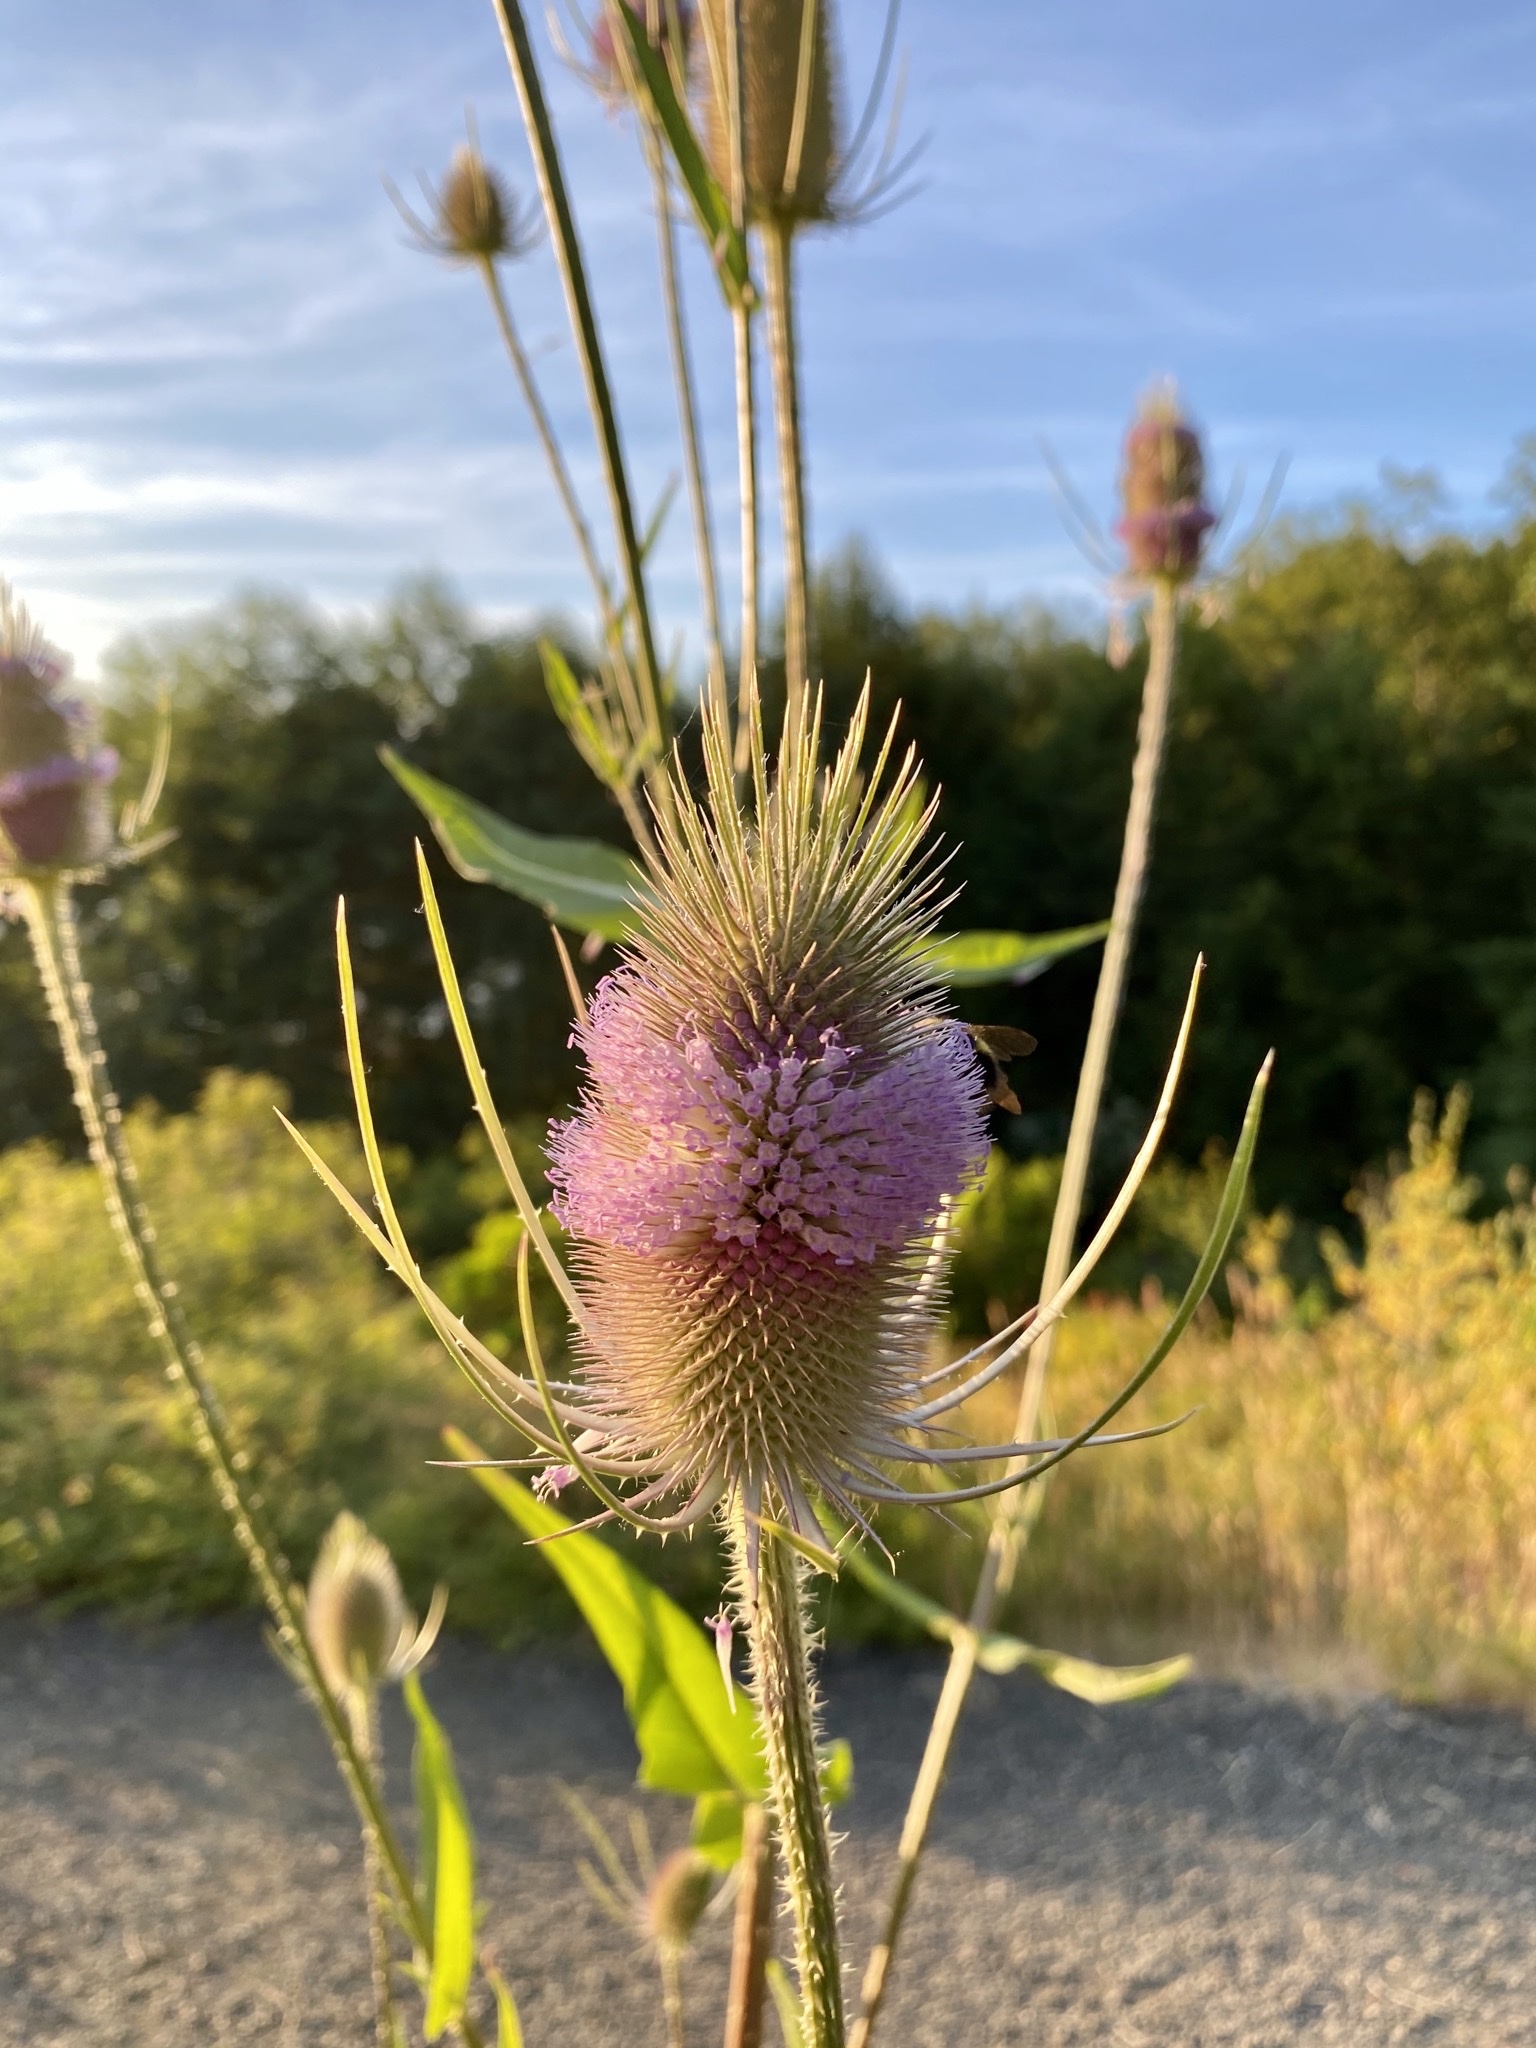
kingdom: Plantae
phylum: Tracheophyta
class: Magnoliopsida
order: Dipsacales
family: Caprifoliaceae
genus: Dipsacus
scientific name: Dipsacus fullonum
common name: Teasel
